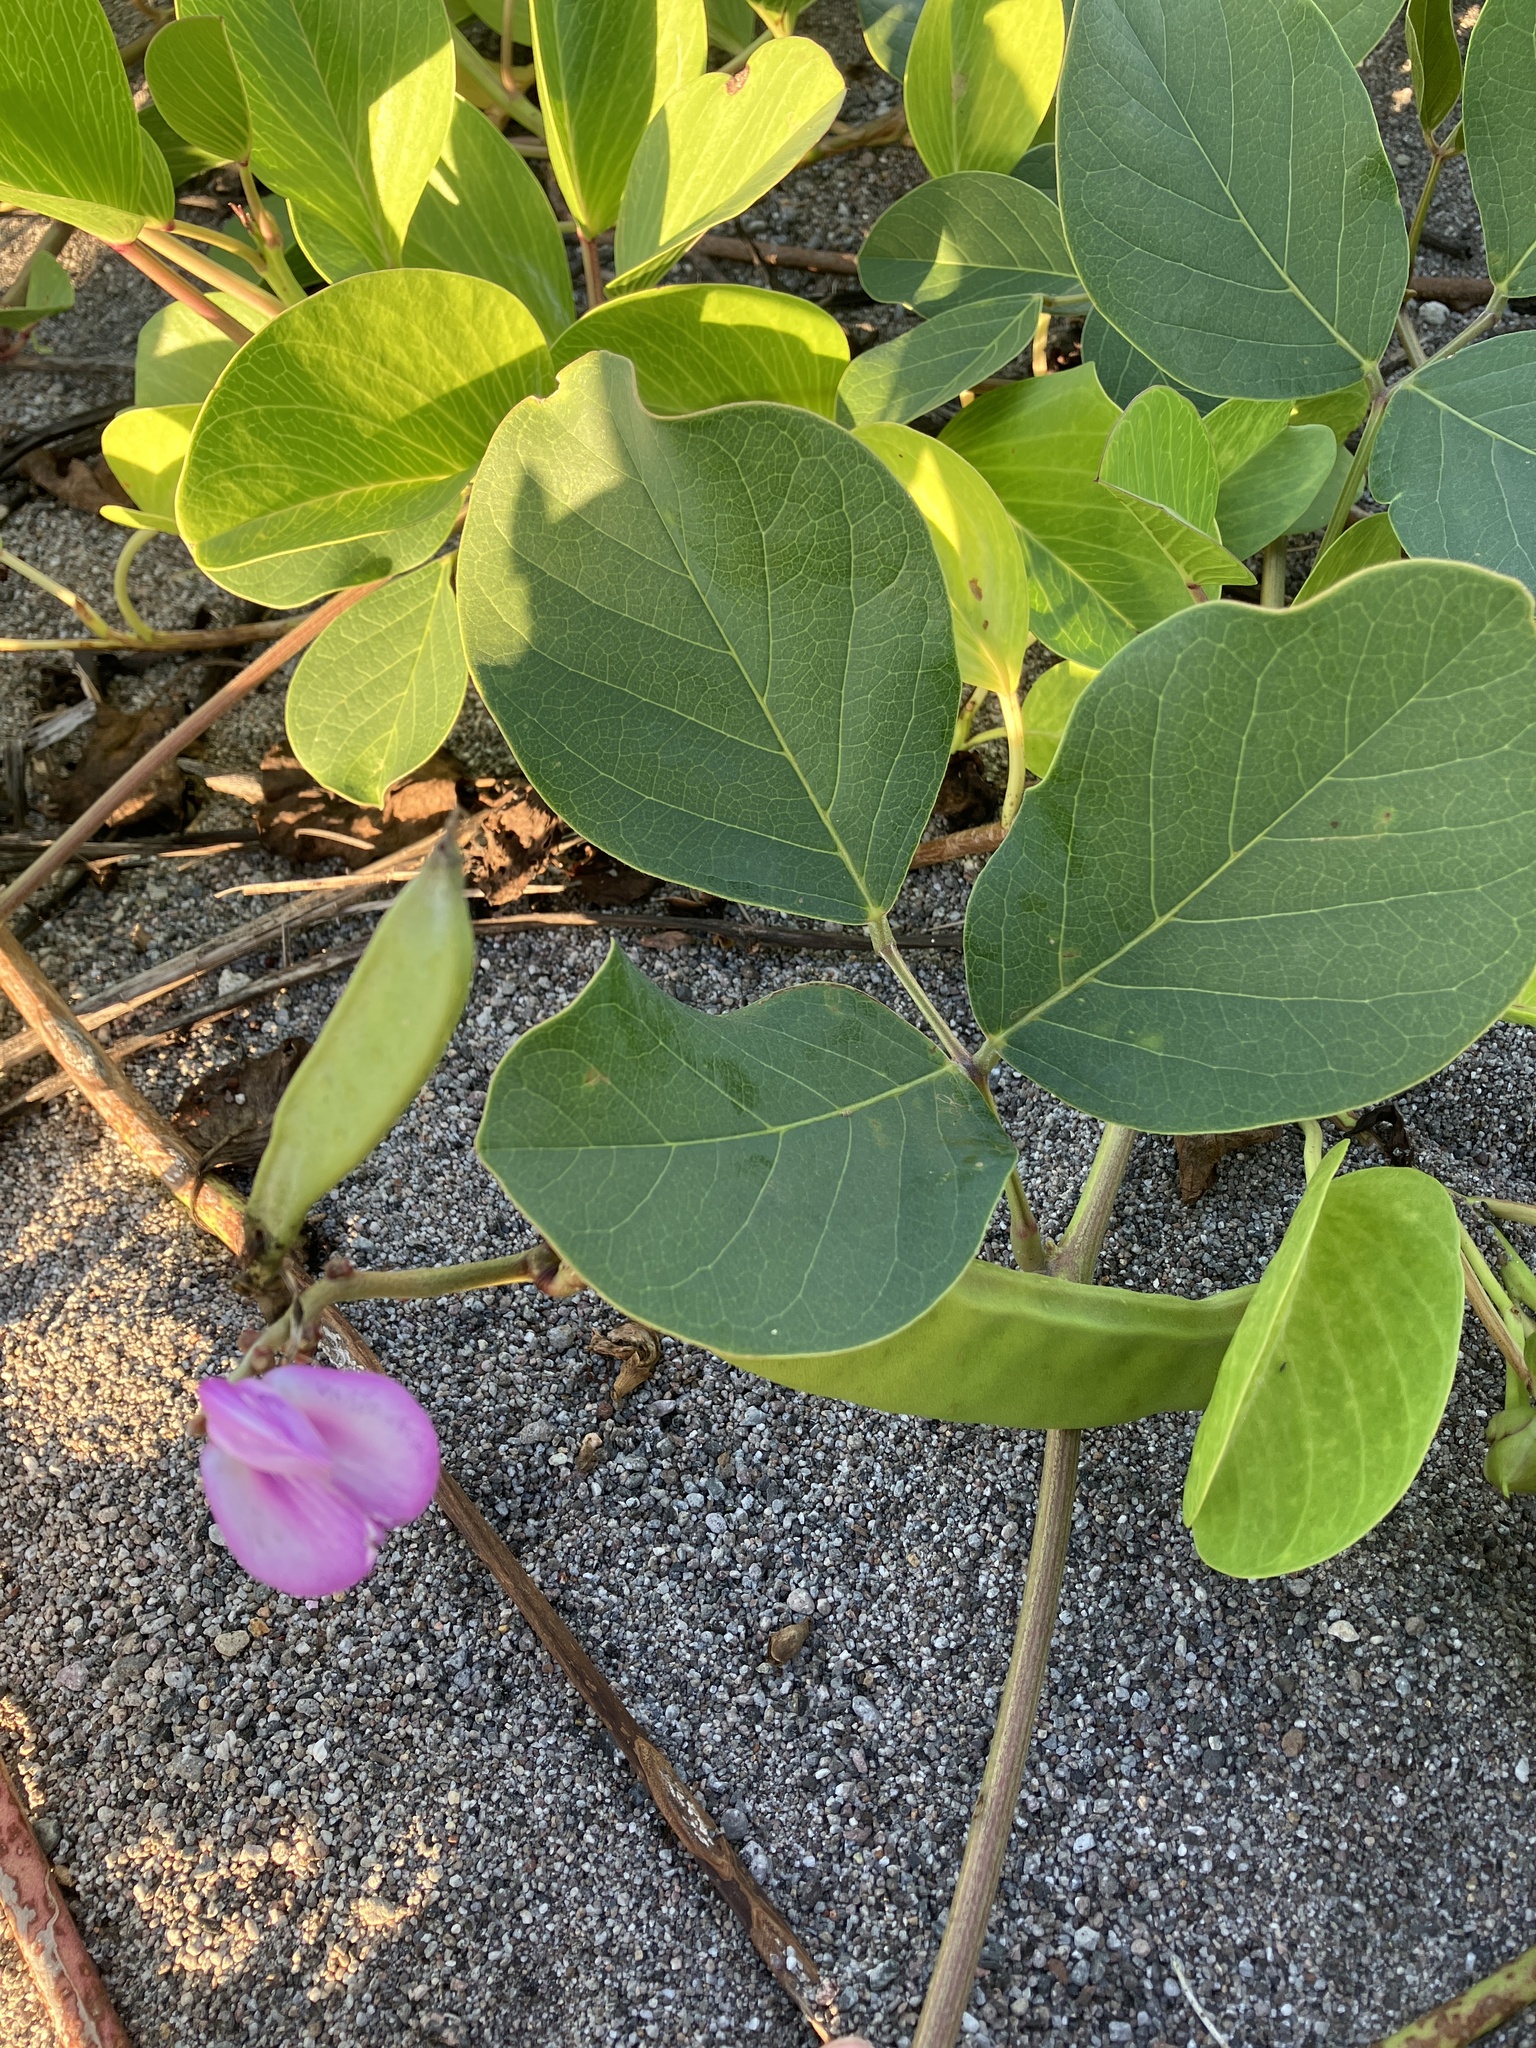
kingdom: Plantae
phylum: Tracheophyta
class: Magnoliopsida
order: Fabales
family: Fabaceae
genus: Canavalia
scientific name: Canavalia rosea
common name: Beach-bean
